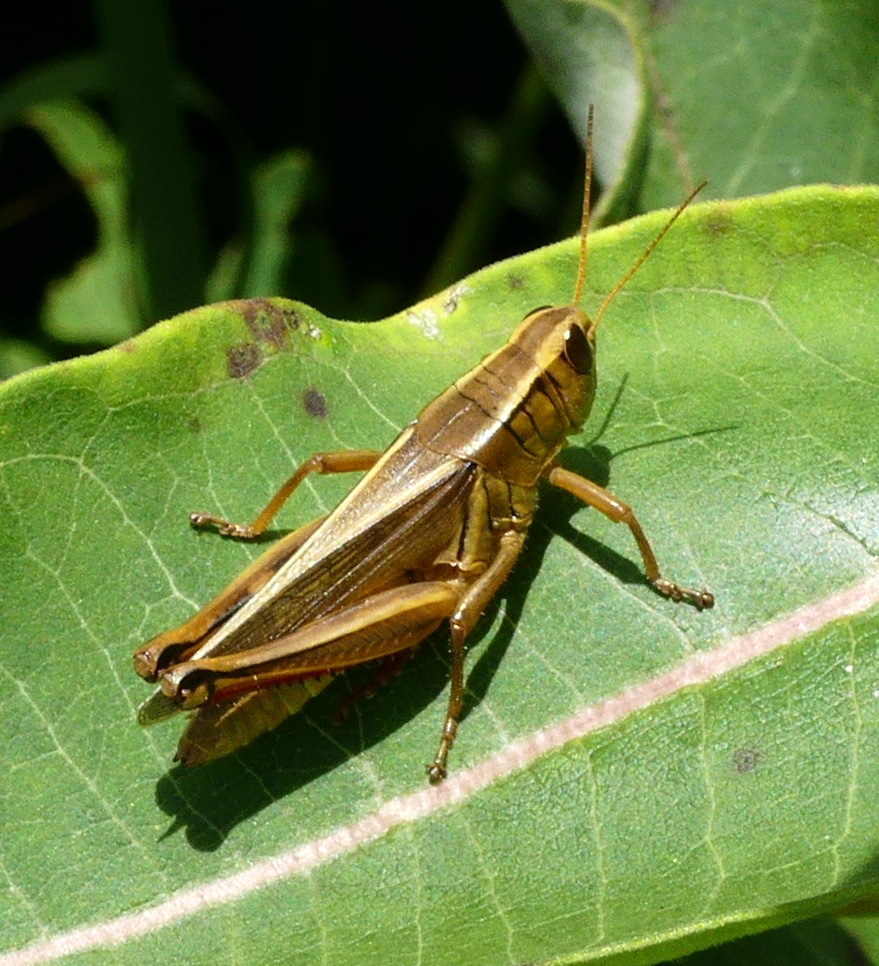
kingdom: Animalia
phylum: Arthropoda
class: Insecta
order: Orthoptera
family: Acrididae
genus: Melanoplus
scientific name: Melanoplus bivittatus
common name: Two-striped grasshopper
